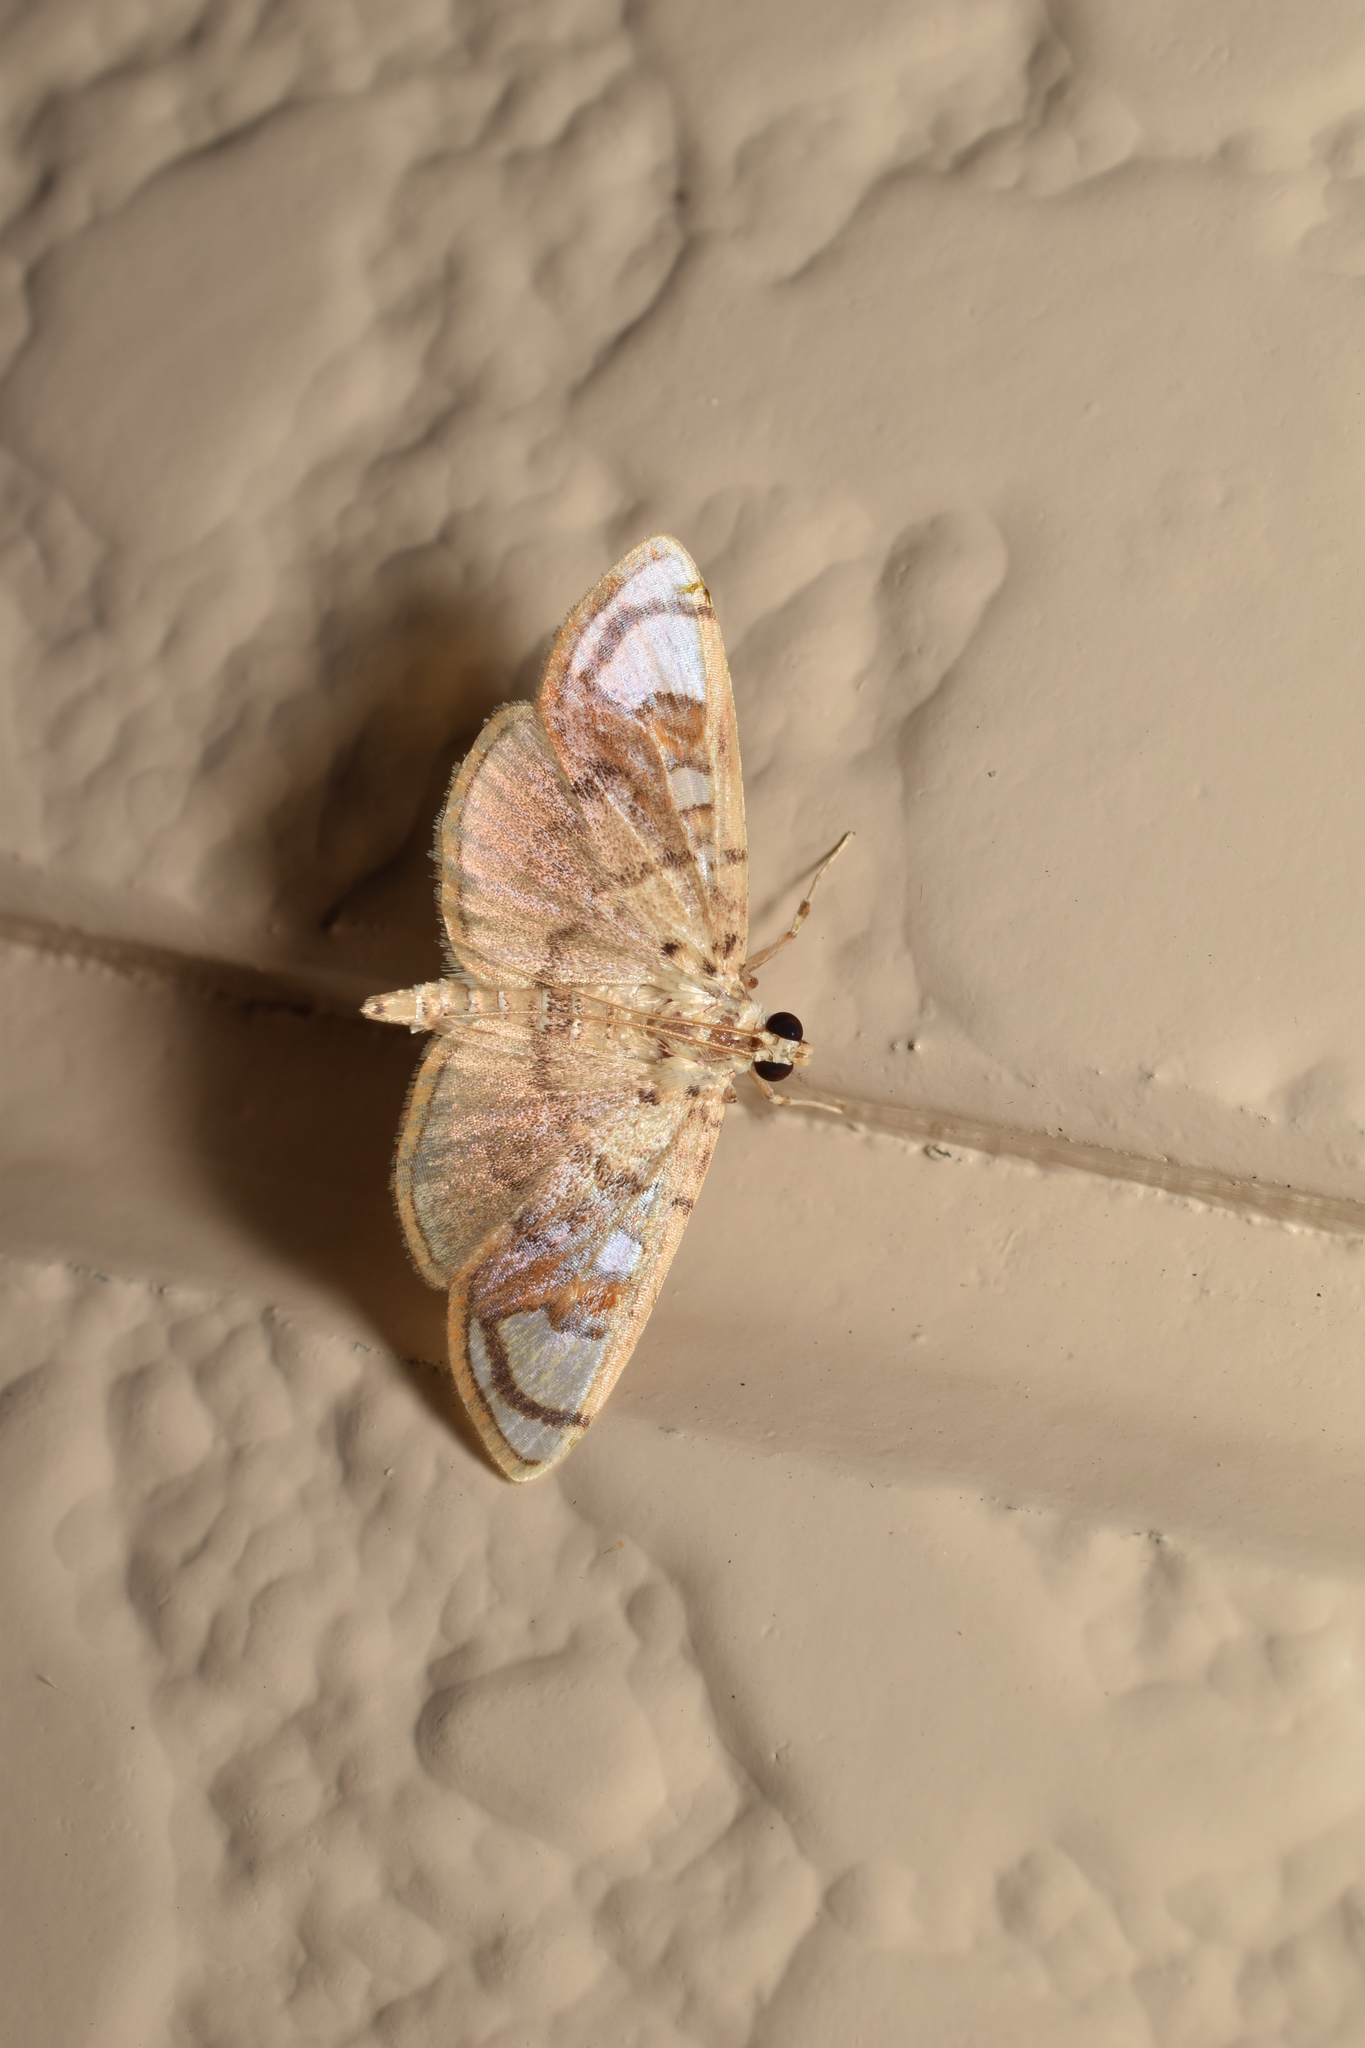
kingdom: Animalia
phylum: Arthropoda
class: Insecta
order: Lepidoptera
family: Crambidae
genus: Pycnarmon
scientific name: Pycnarmon pantherata
